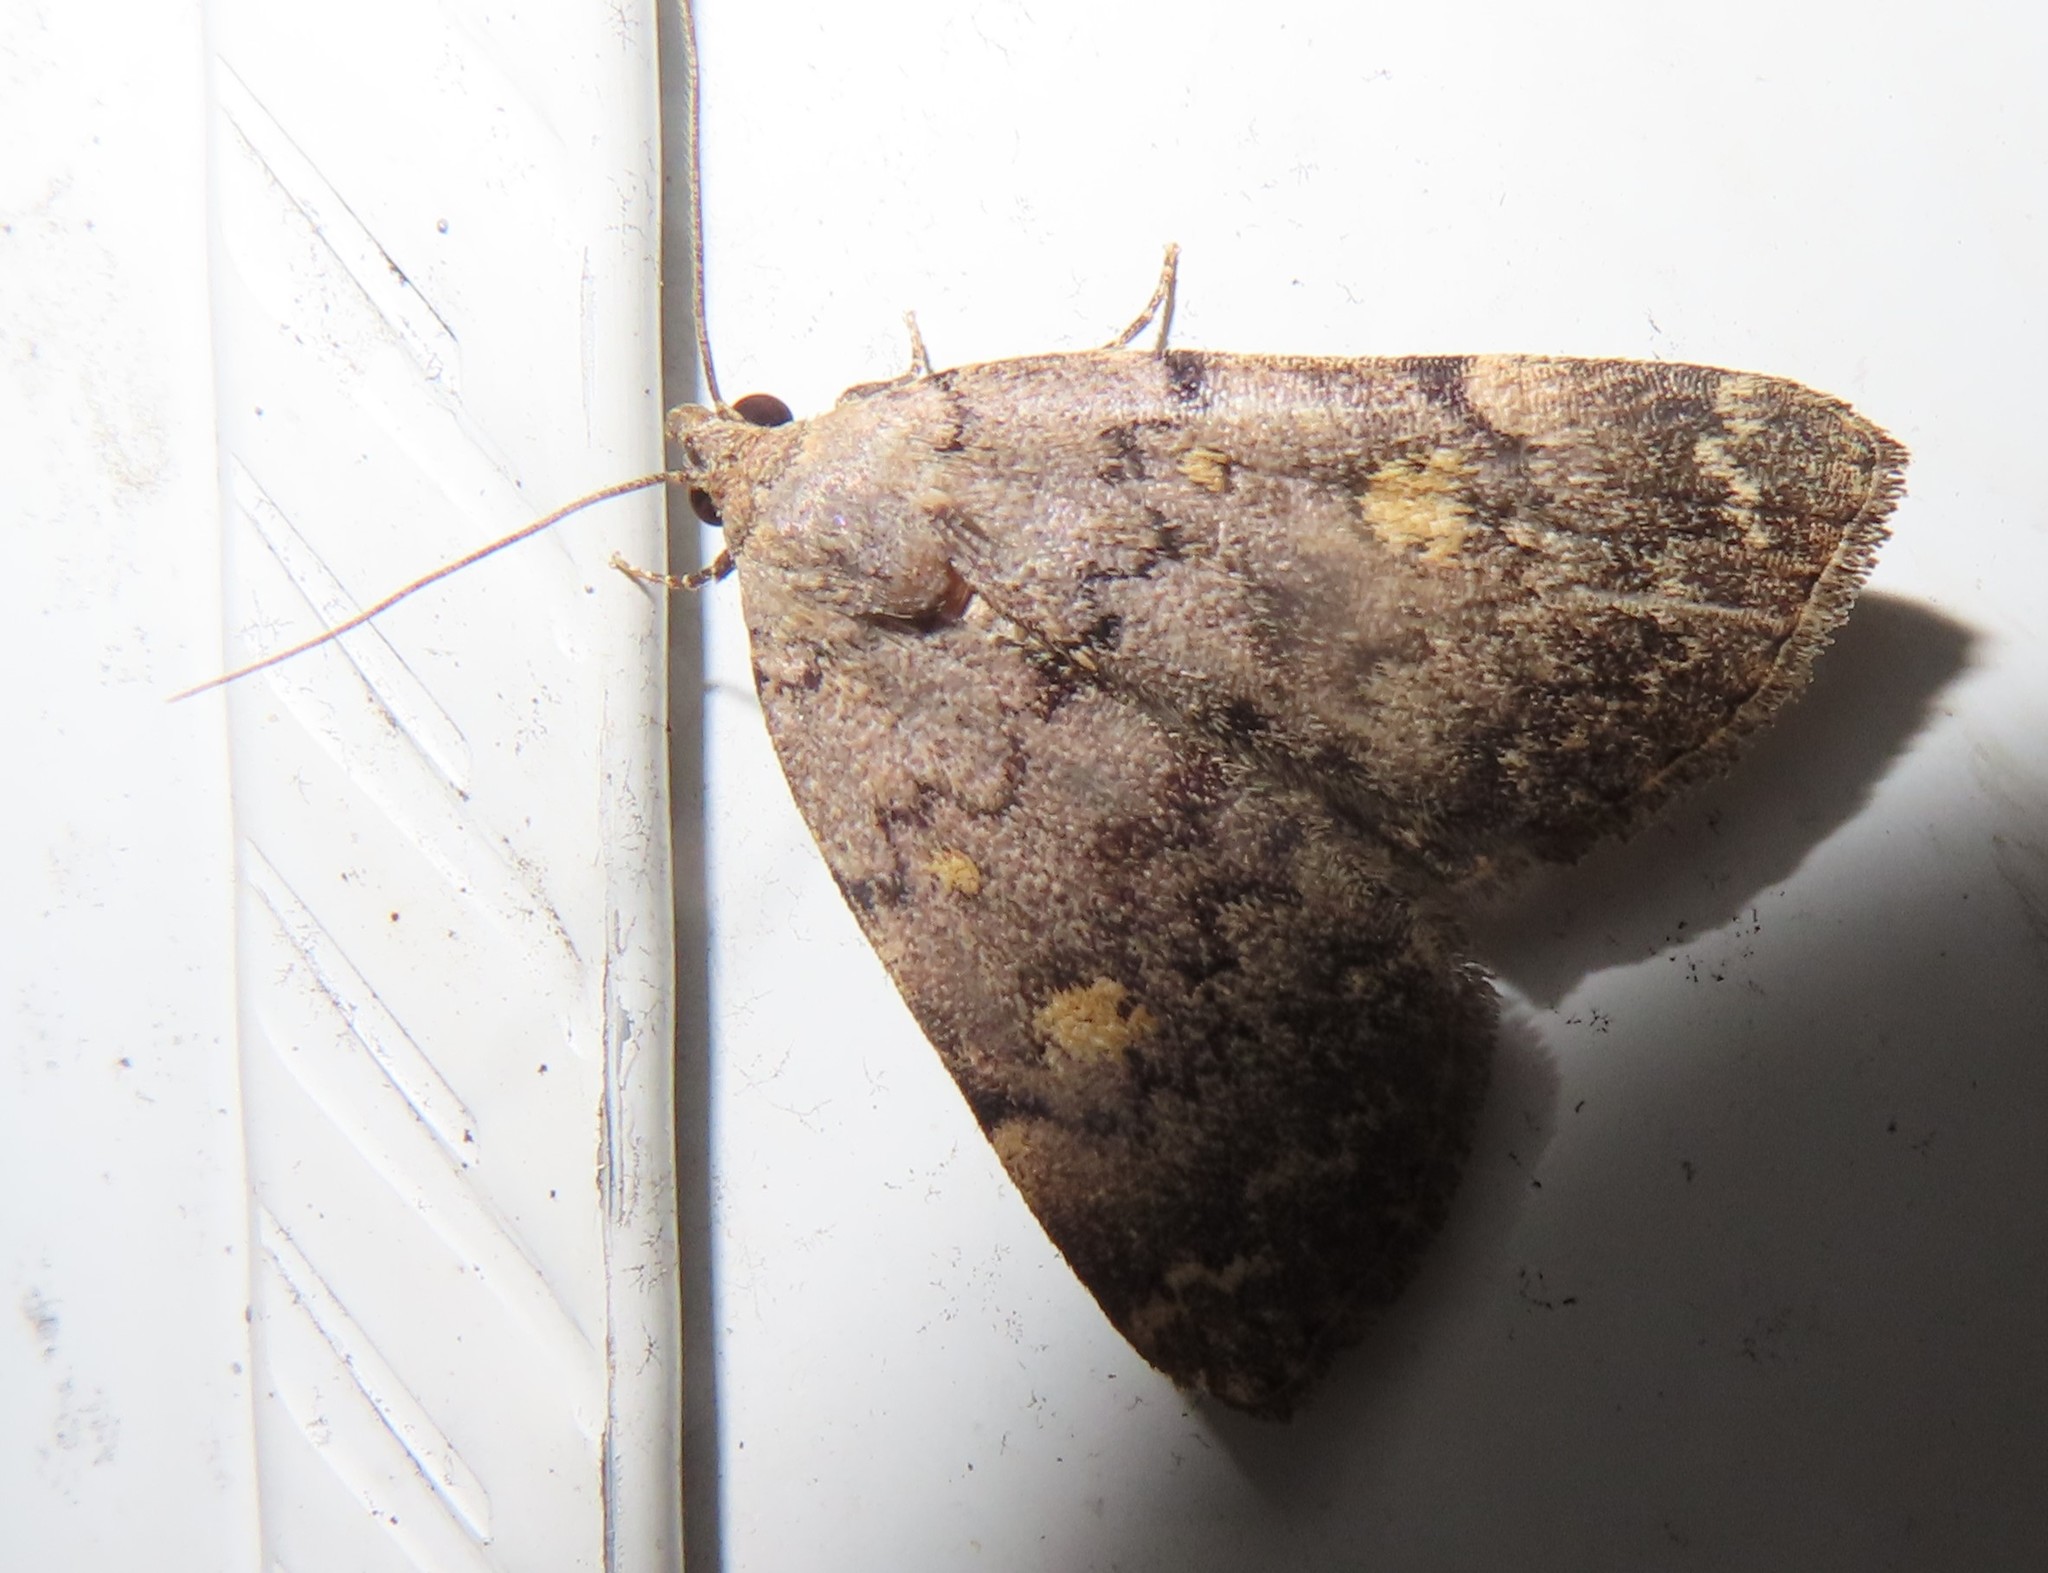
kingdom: Animalia
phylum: Arthropoda
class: Insecta
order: Lepidoptera
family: Erebidae
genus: Idia
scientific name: Idia aemula
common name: Common idia moth
